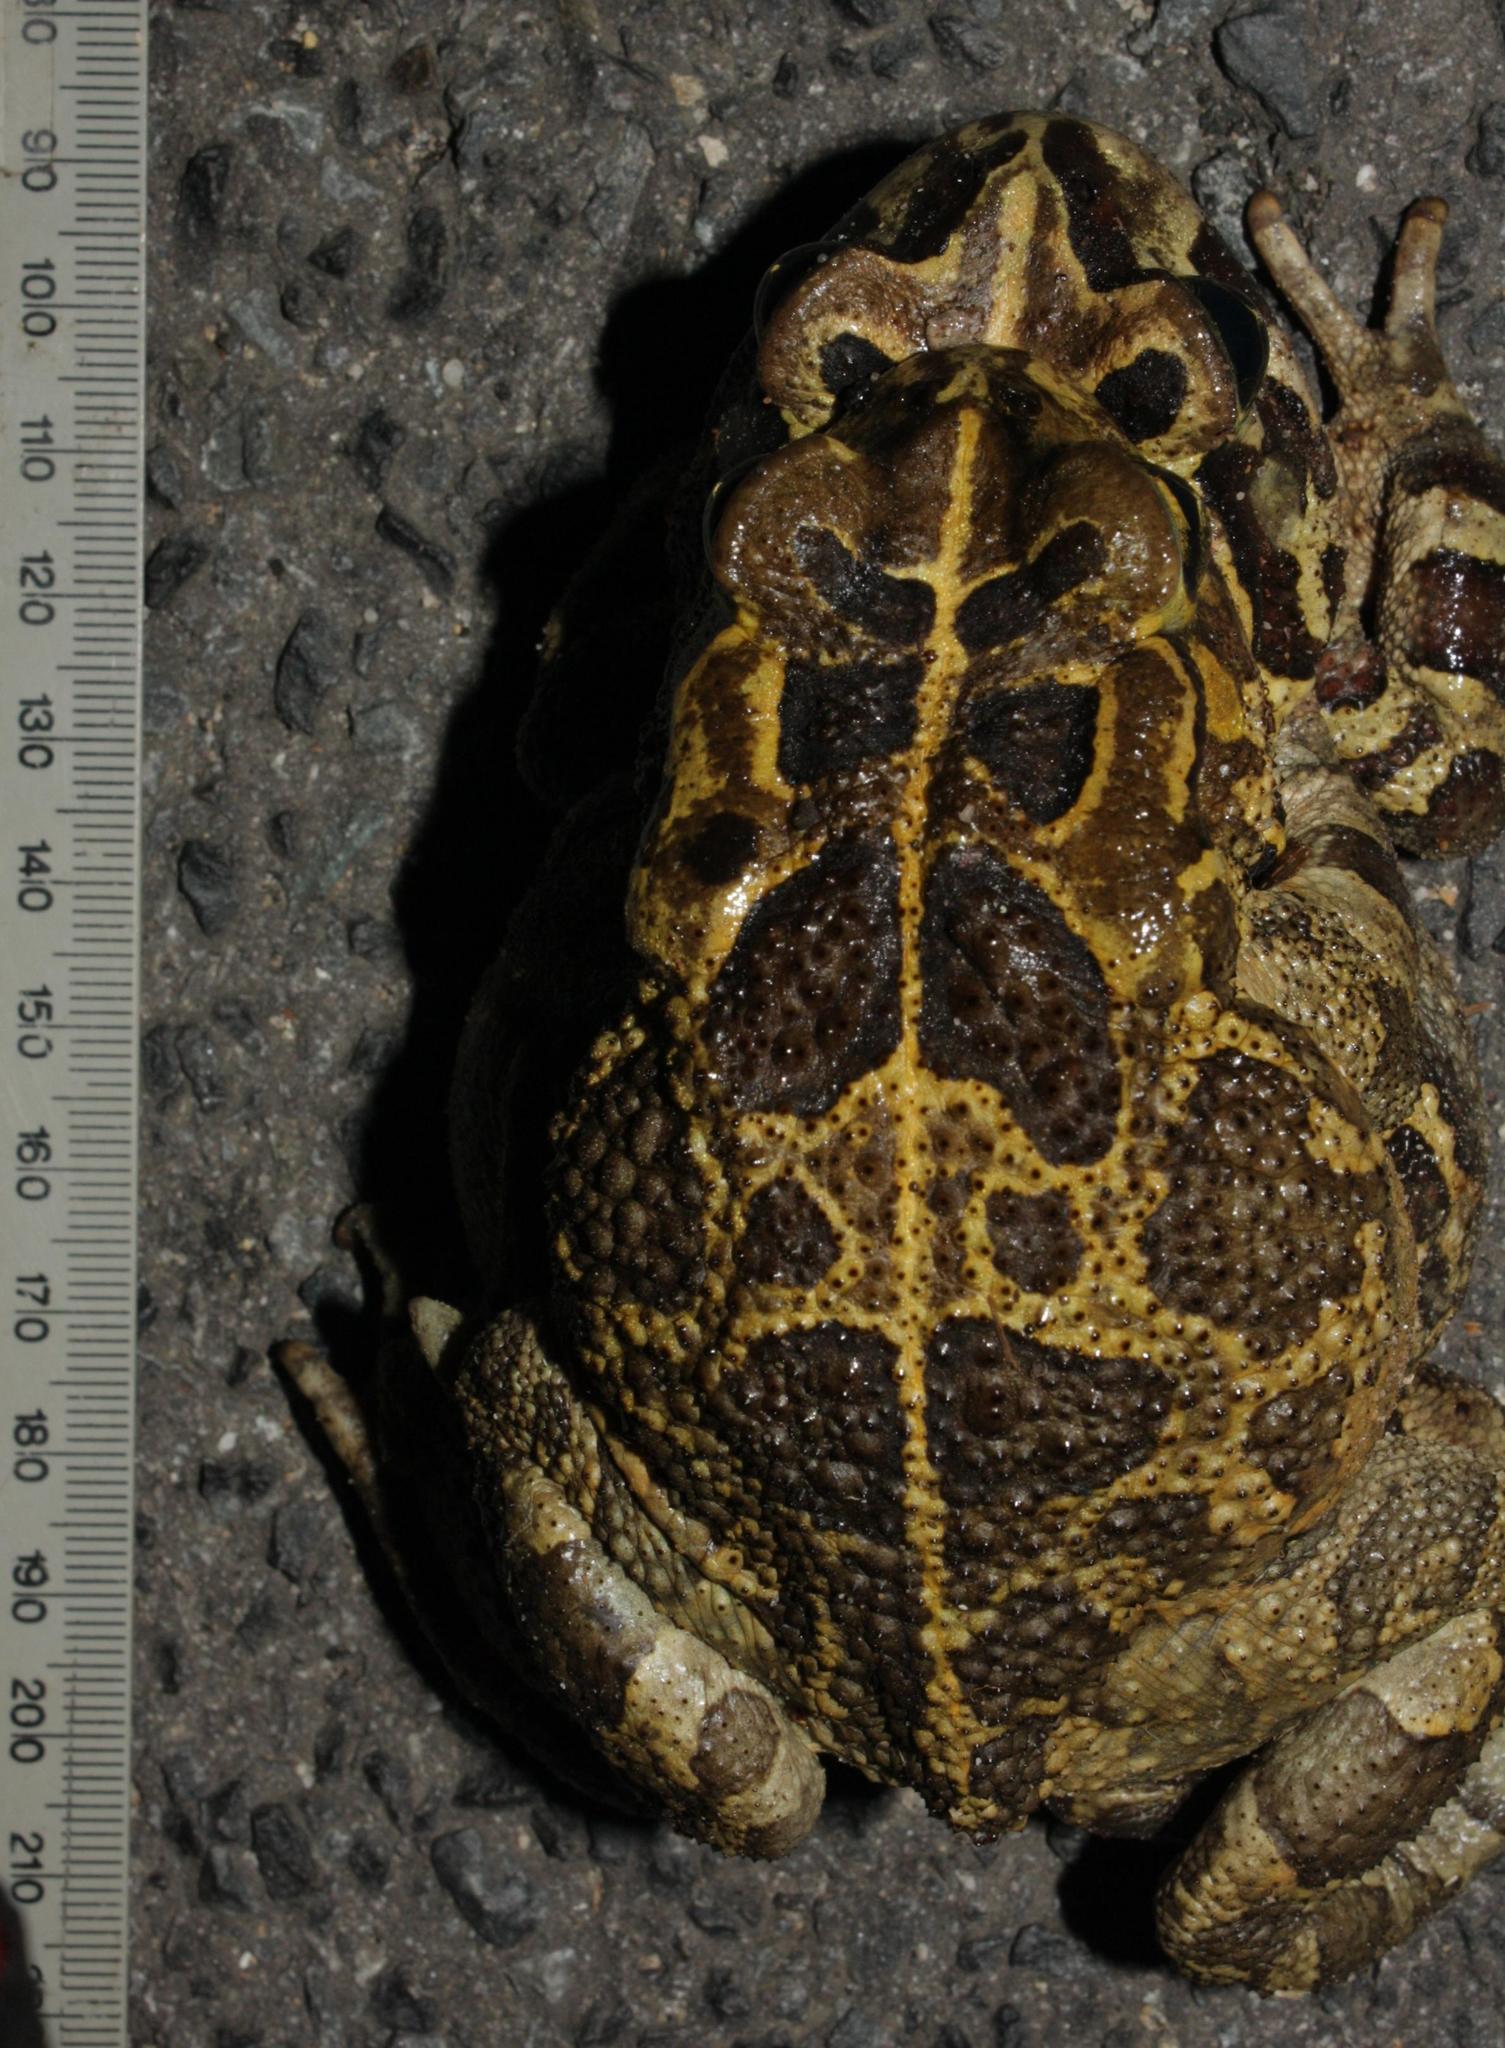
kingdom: Animalia
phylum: Chordata
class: Amphibia
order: Anura
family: Bufonidae
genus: Sclerophrys
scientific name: Sclerophrys pantherina
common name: Panther toad
